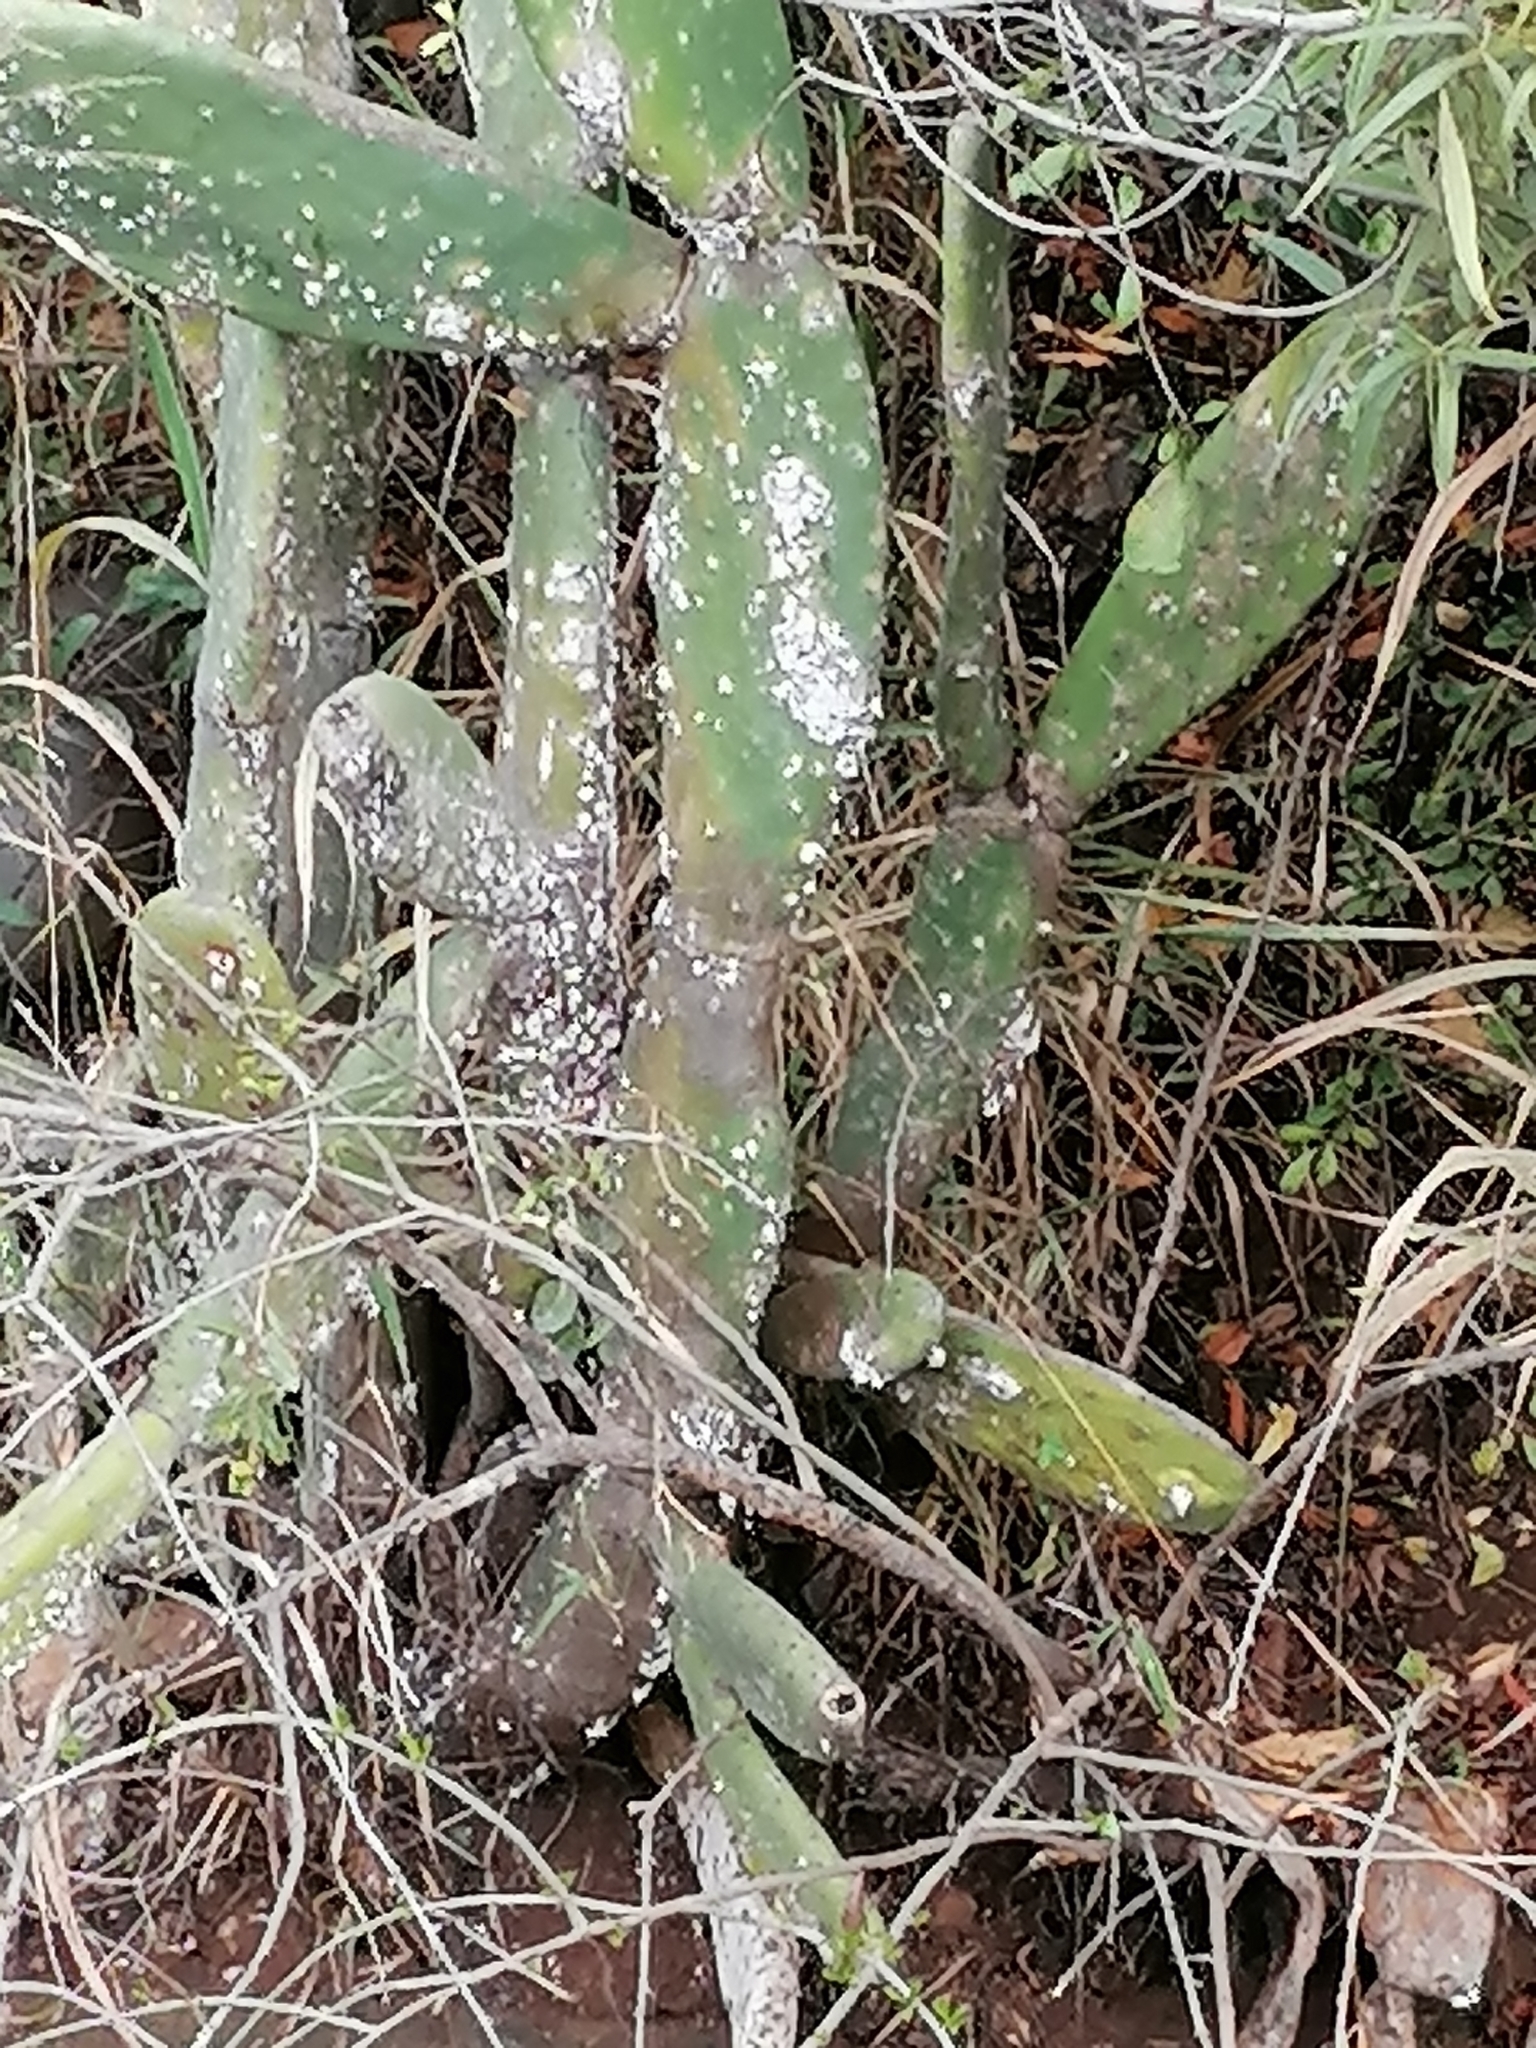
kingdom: Plantae
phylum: Tracheophyta
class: Magnoliopsida
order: Caryophyllales
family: Cactaceae
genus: Opuntia
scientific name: Opuntia ficus-indica
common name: Barbary fig
